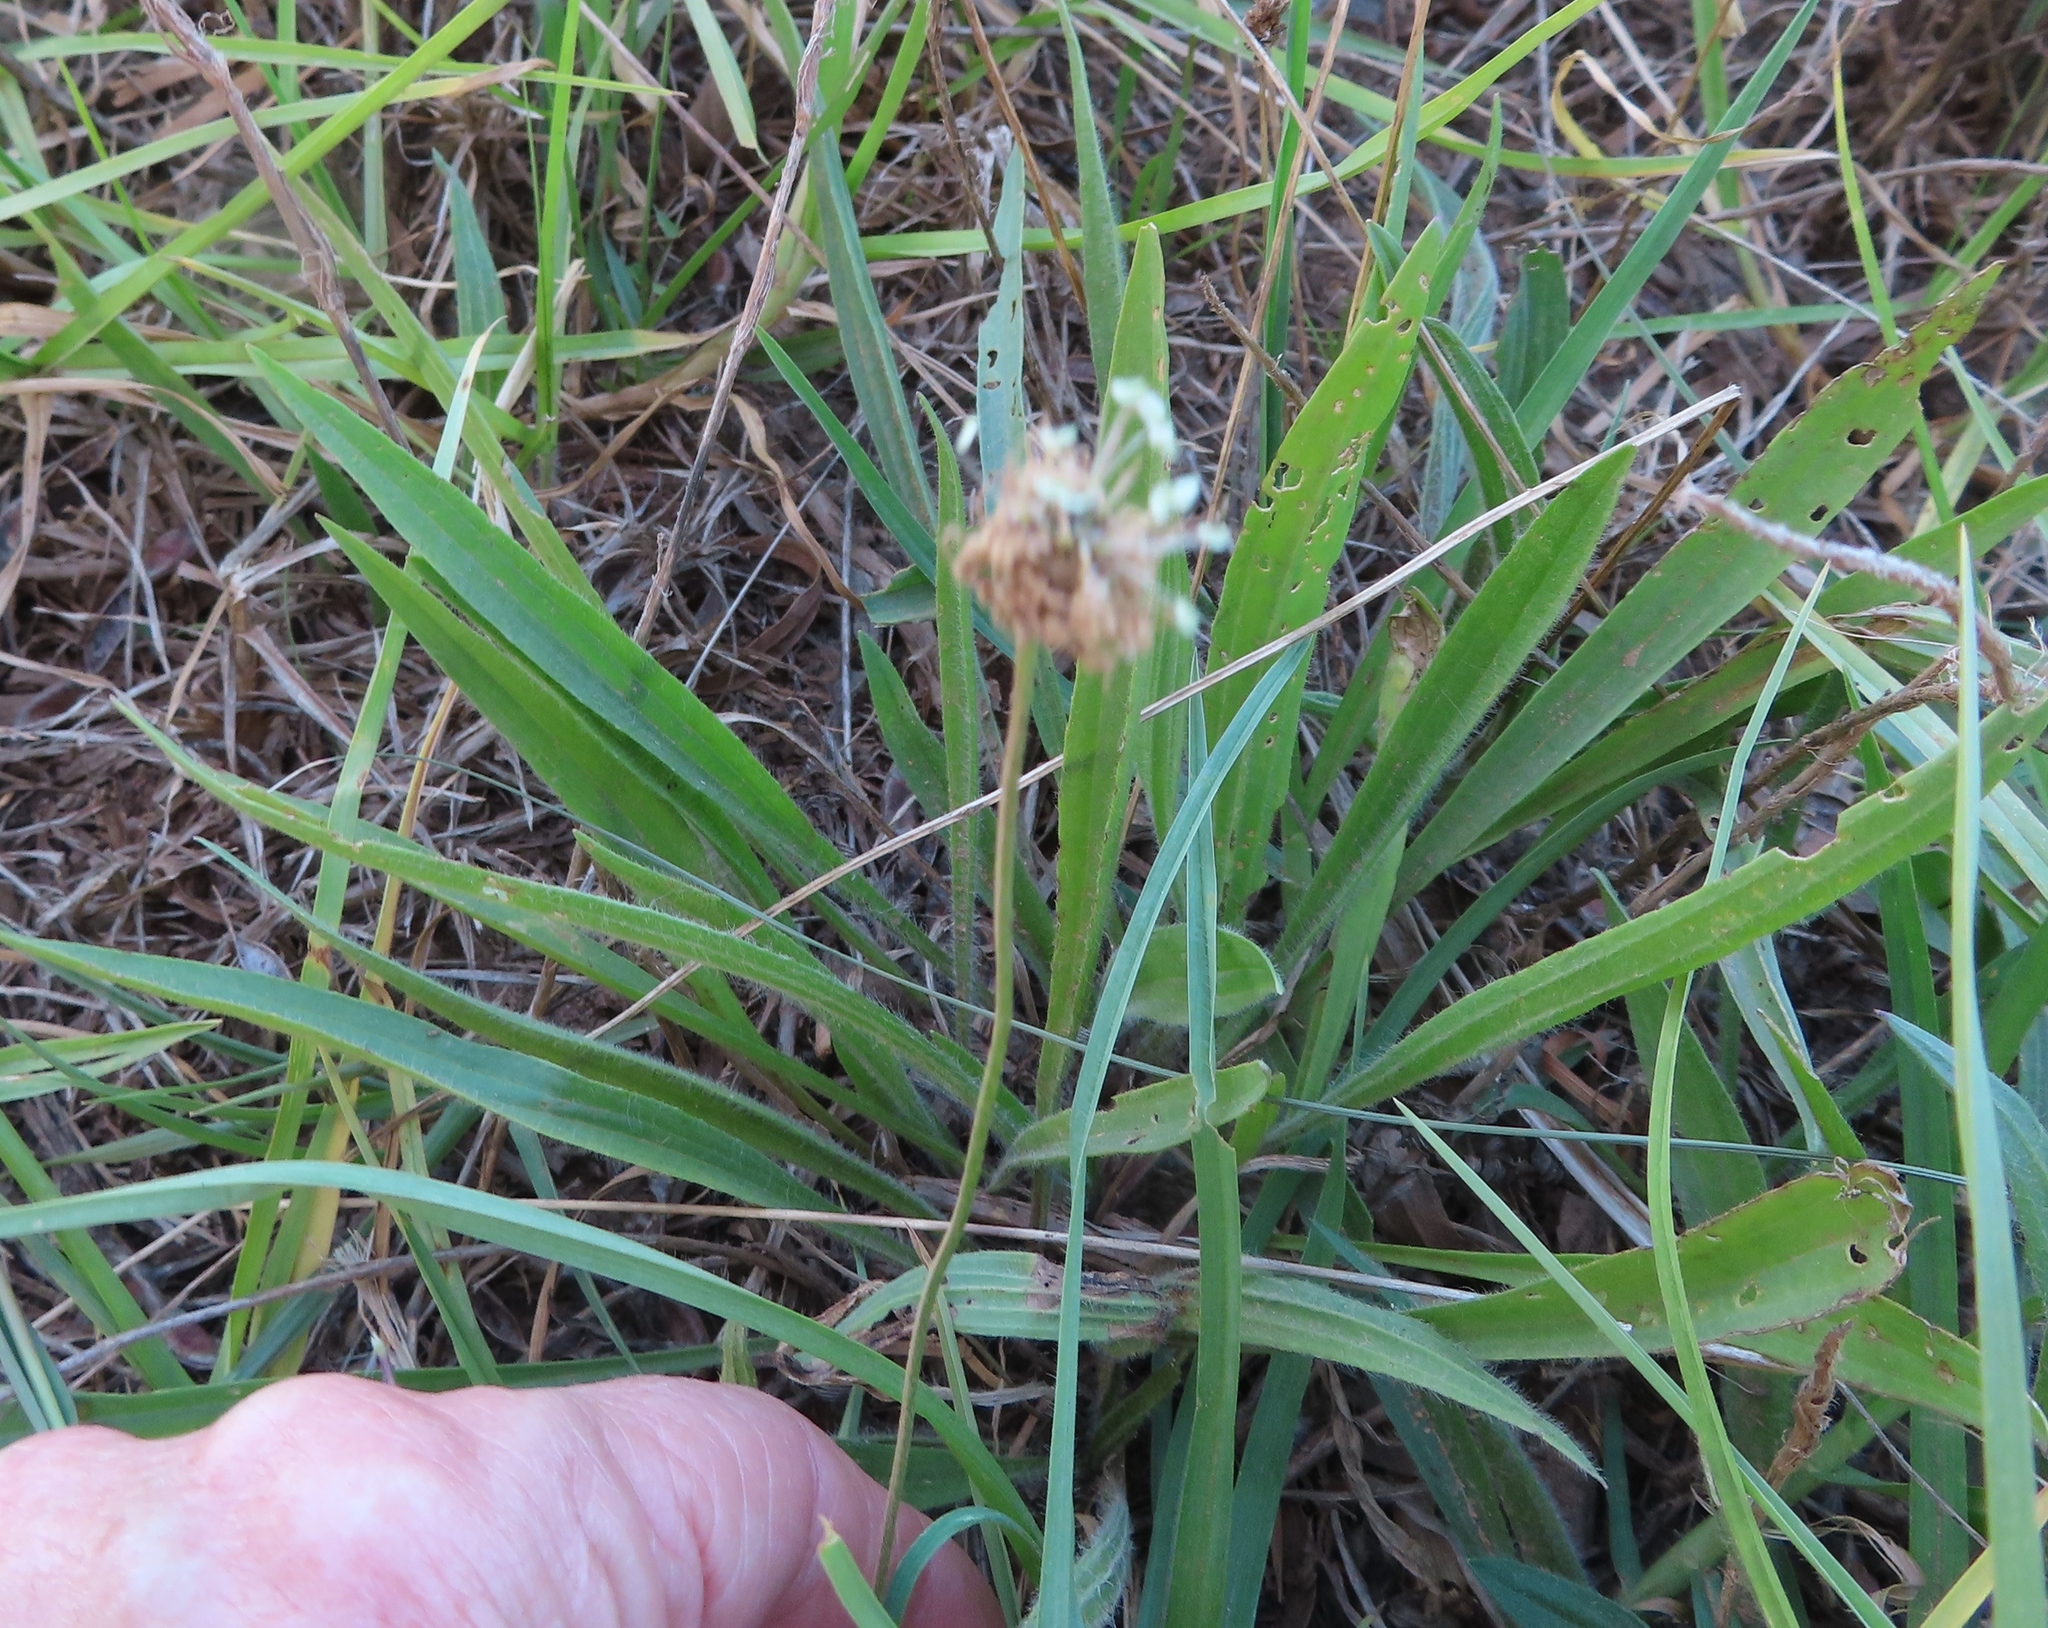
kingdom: Plantae
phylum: Tracheophyta
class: Magnoliopsida
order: Lamiales
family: Plantaginaceae
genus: Plantago
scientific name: Plantago lanceolata
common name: Ribwort plantain
